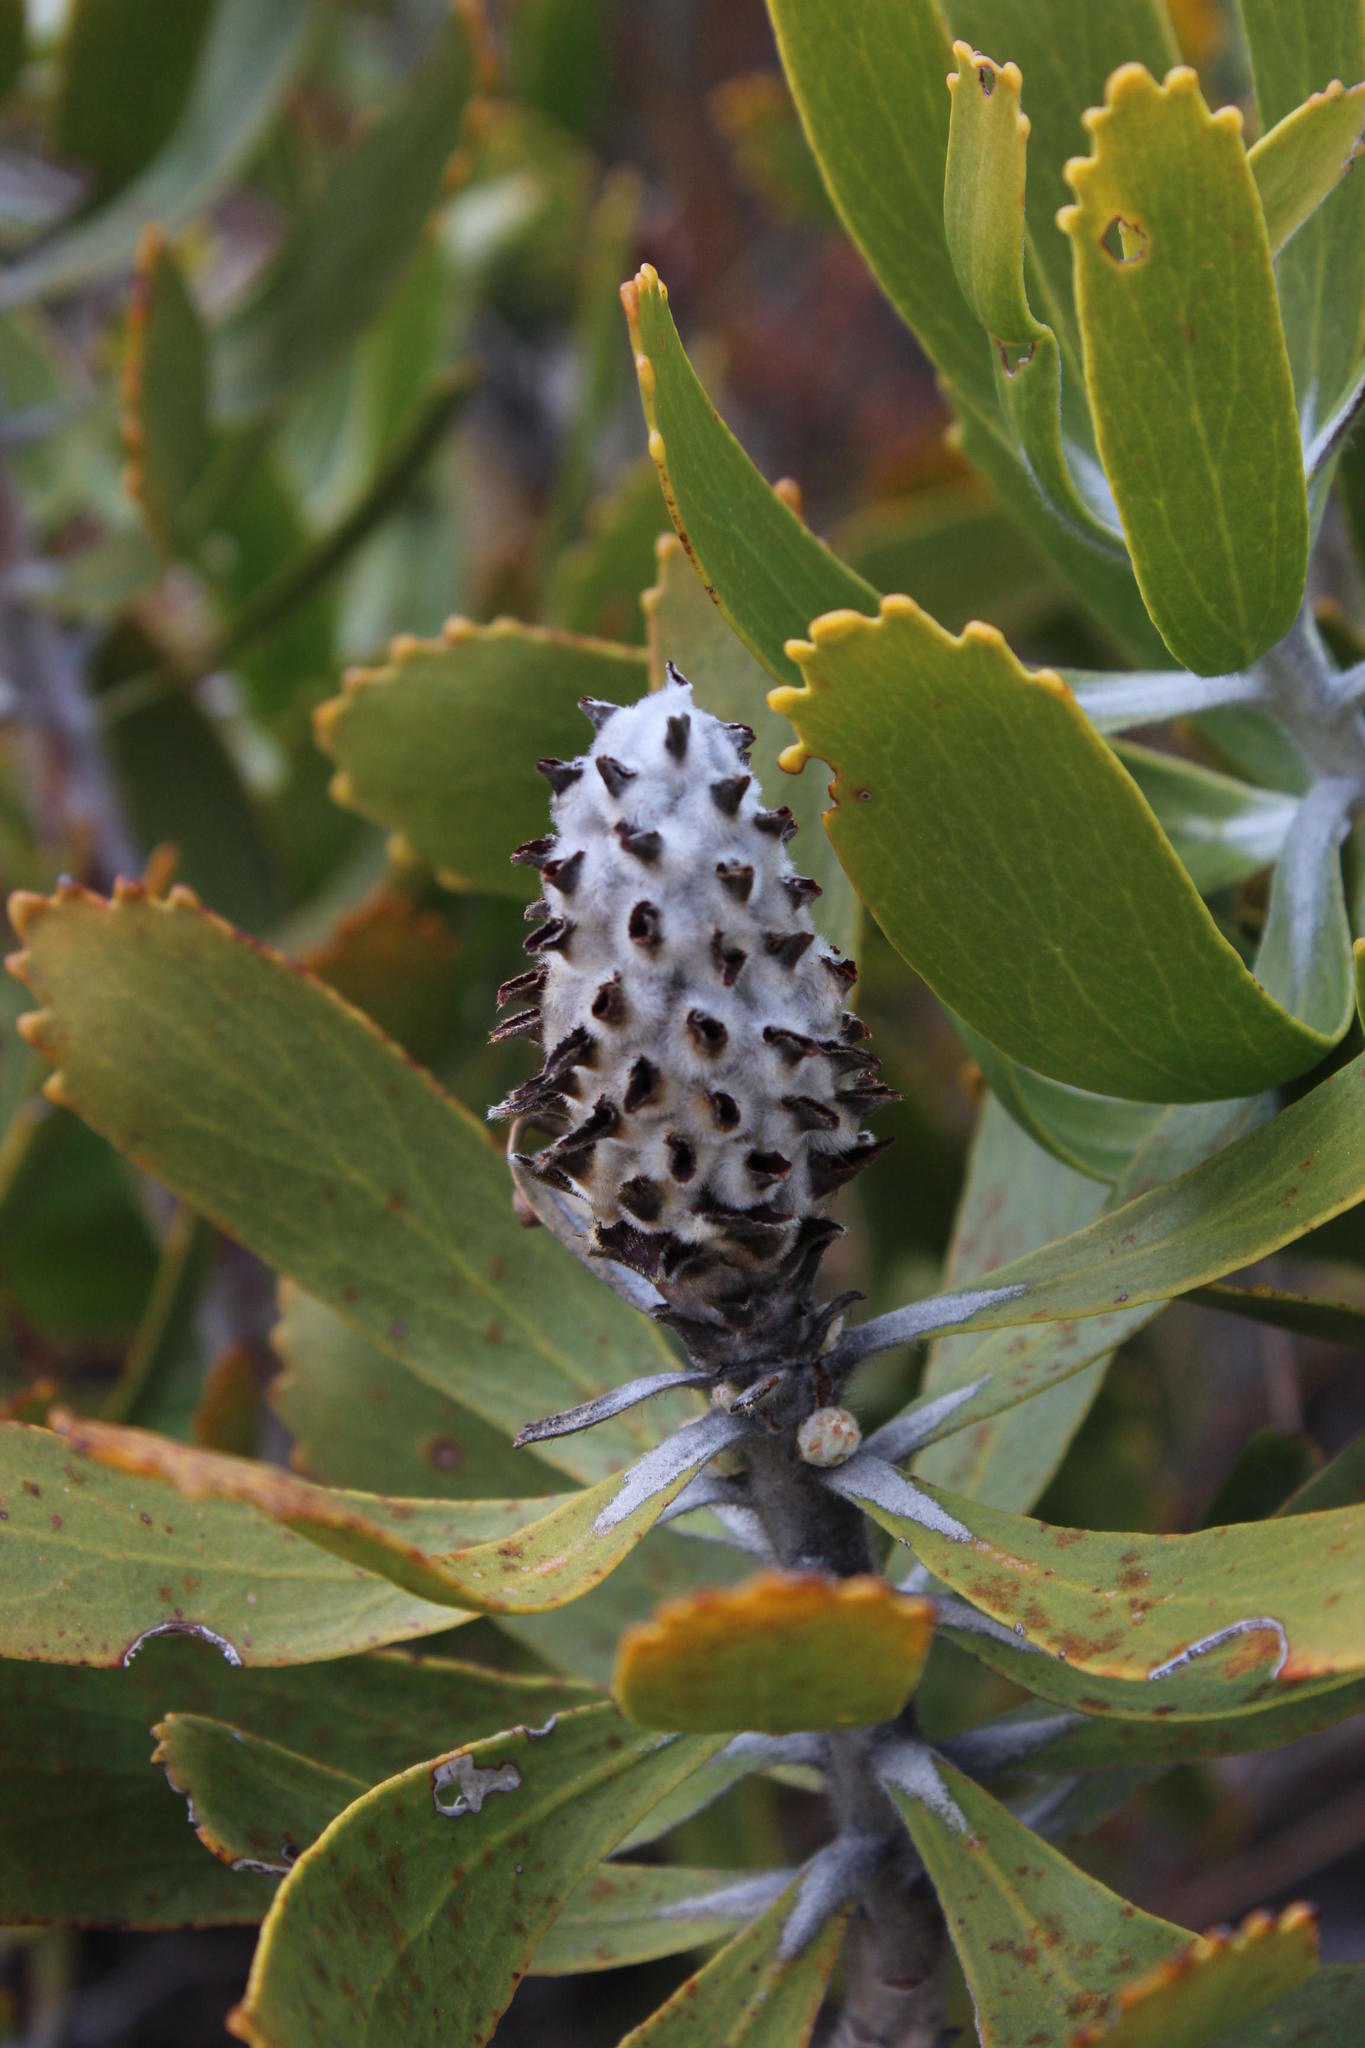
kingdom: Plantae
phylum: Tracheophyta
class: Magnoliopsida
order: Proteales
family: Proteaceae
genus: Leucospermum
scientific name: Leucospermum cuneiforme
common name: Common pincushion
